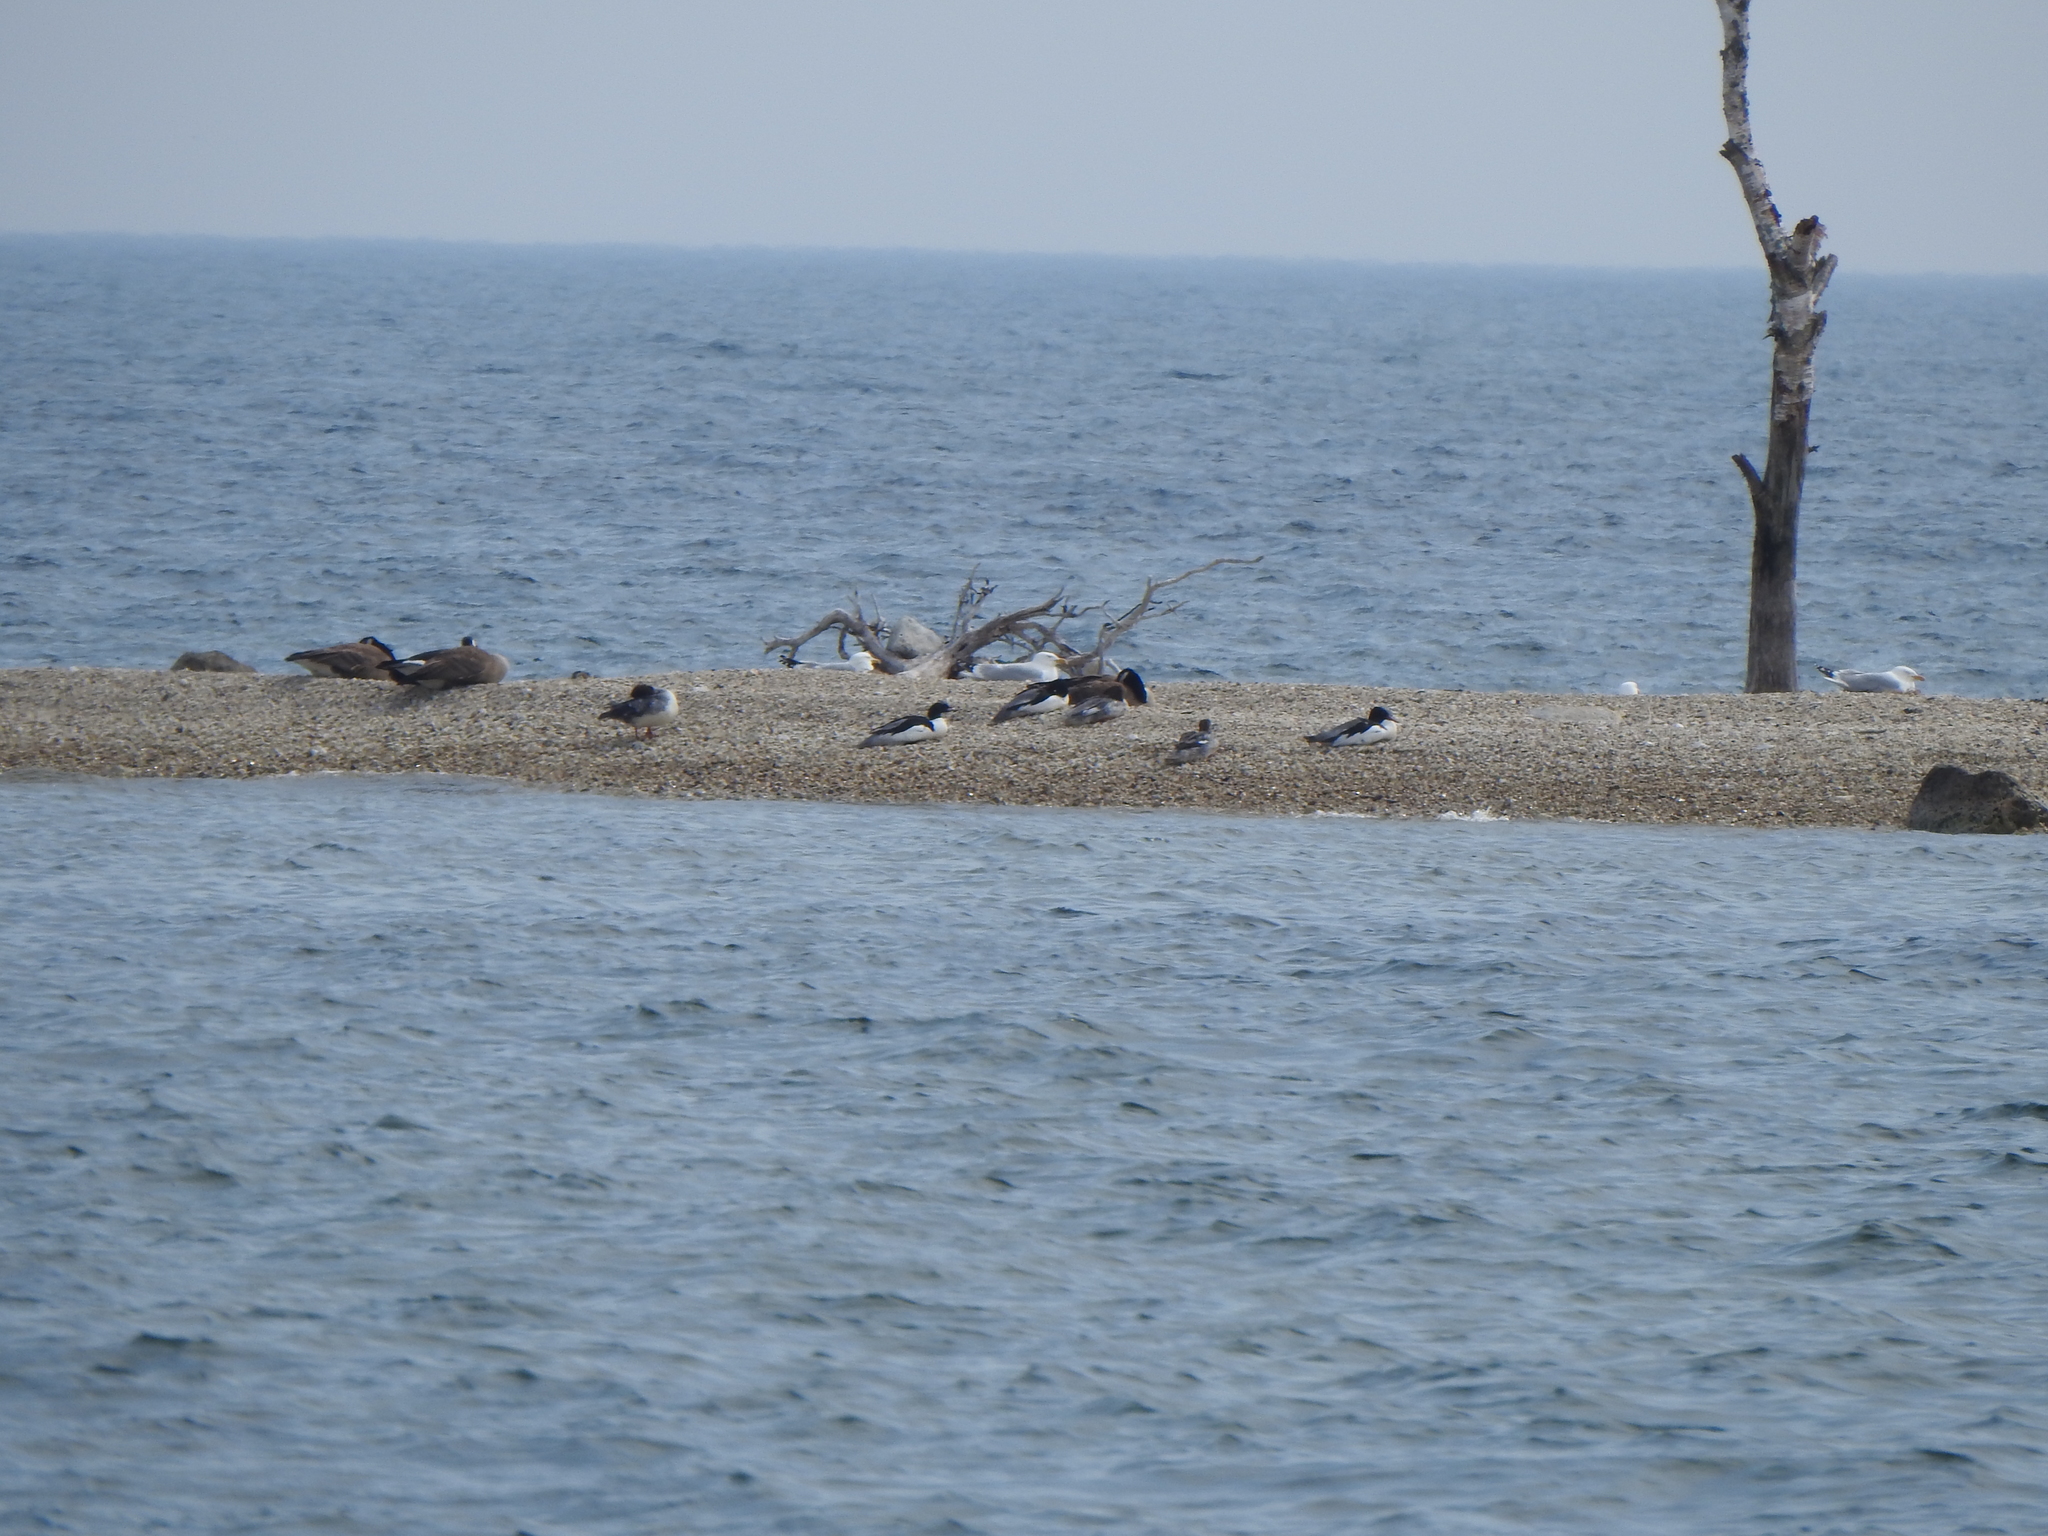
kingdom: Animalia
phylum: Chordata
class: Aves
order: Anseriformes
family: Anatidae
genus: Mergus
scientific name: Mergus merganser
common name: Common merganser
